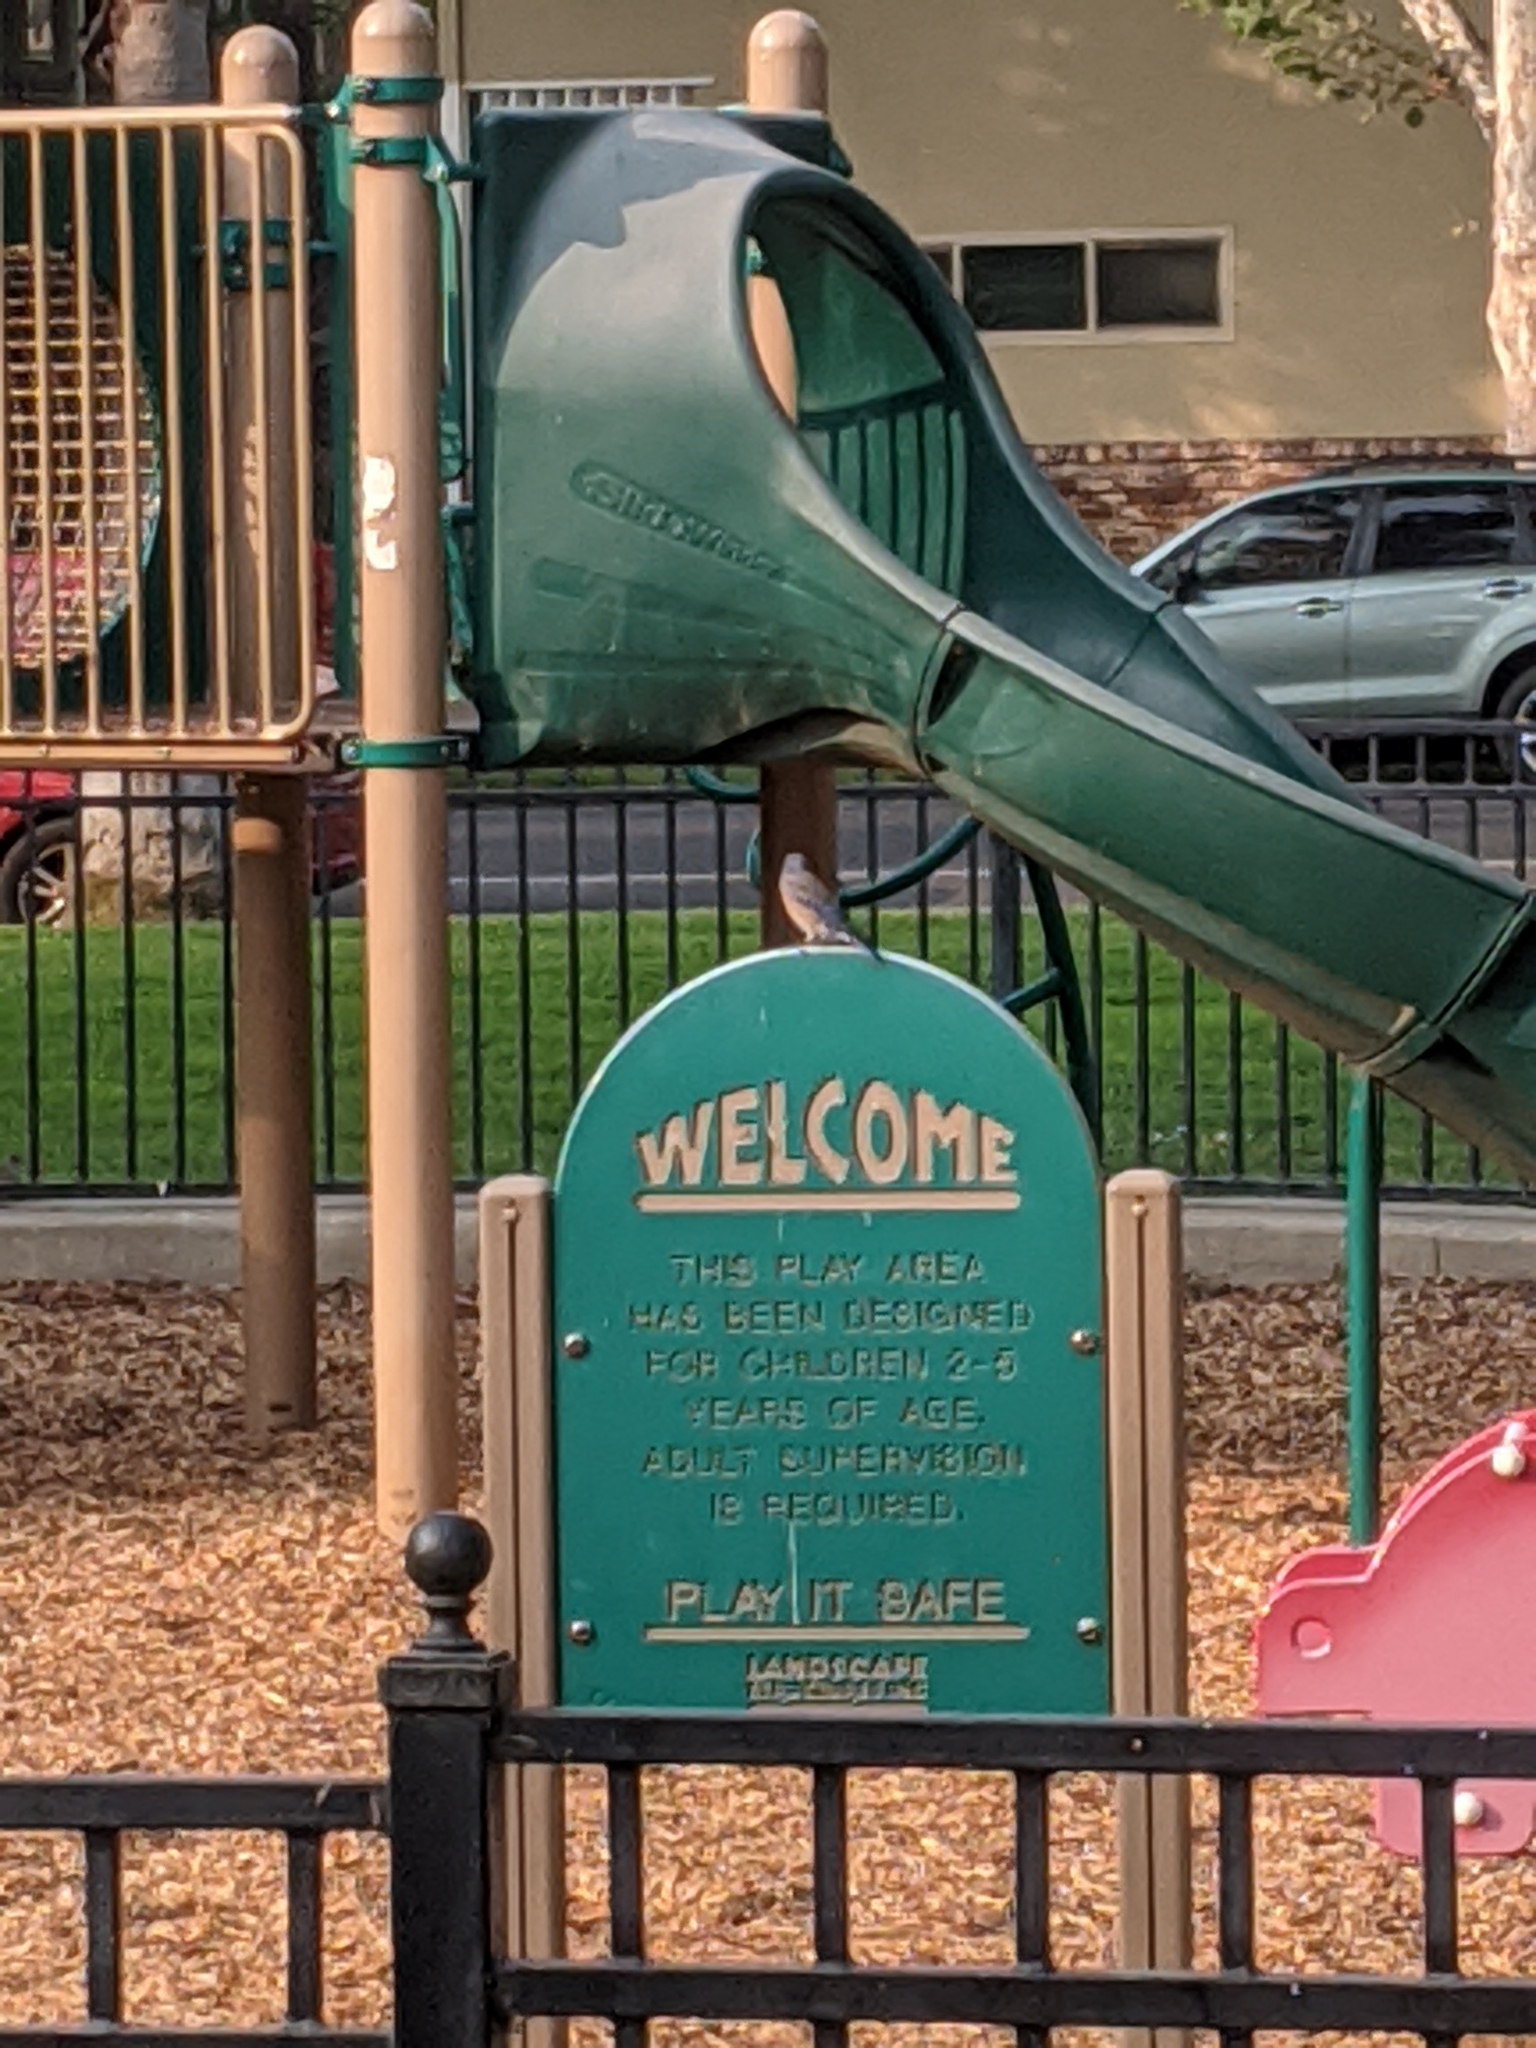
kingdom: Animalia
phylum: Chordata
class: Aves
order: Passeriformes
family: Turdidae
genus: Sialia
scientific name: Sialia mexicana
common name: Western bluebird
